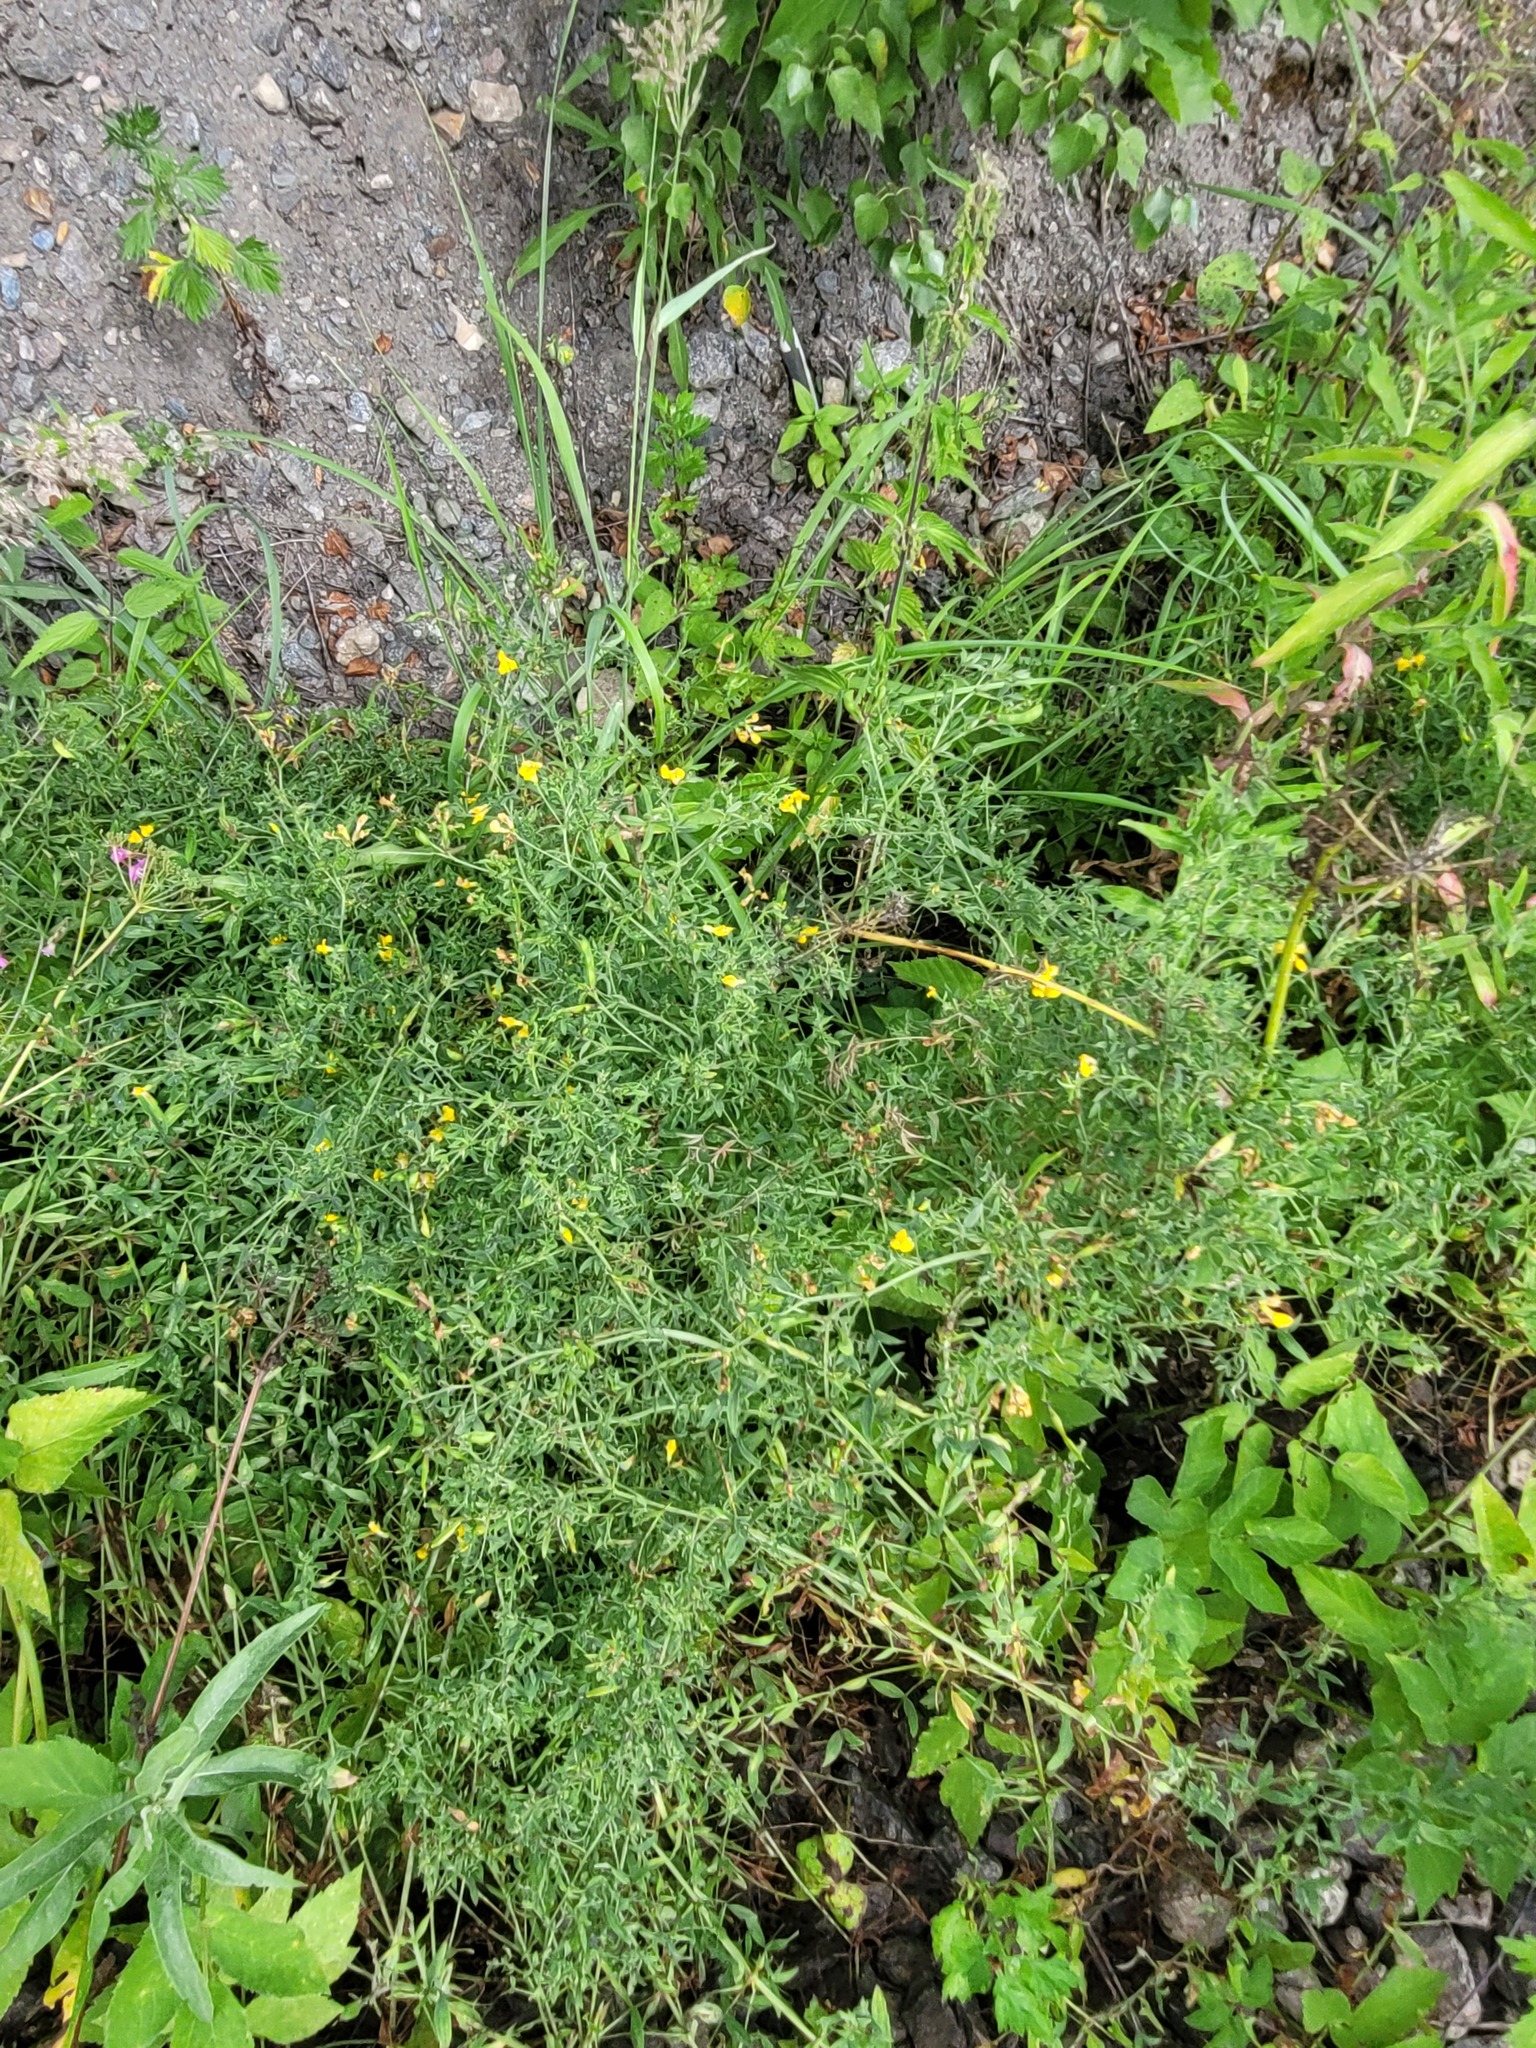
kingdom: Plantae
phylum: Tracheophyta
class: Magnoliopsida
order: Fabales
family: Fabaceae
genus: Lathyrus
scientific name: Lathyrus pratensis
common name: Meadow vetchling
